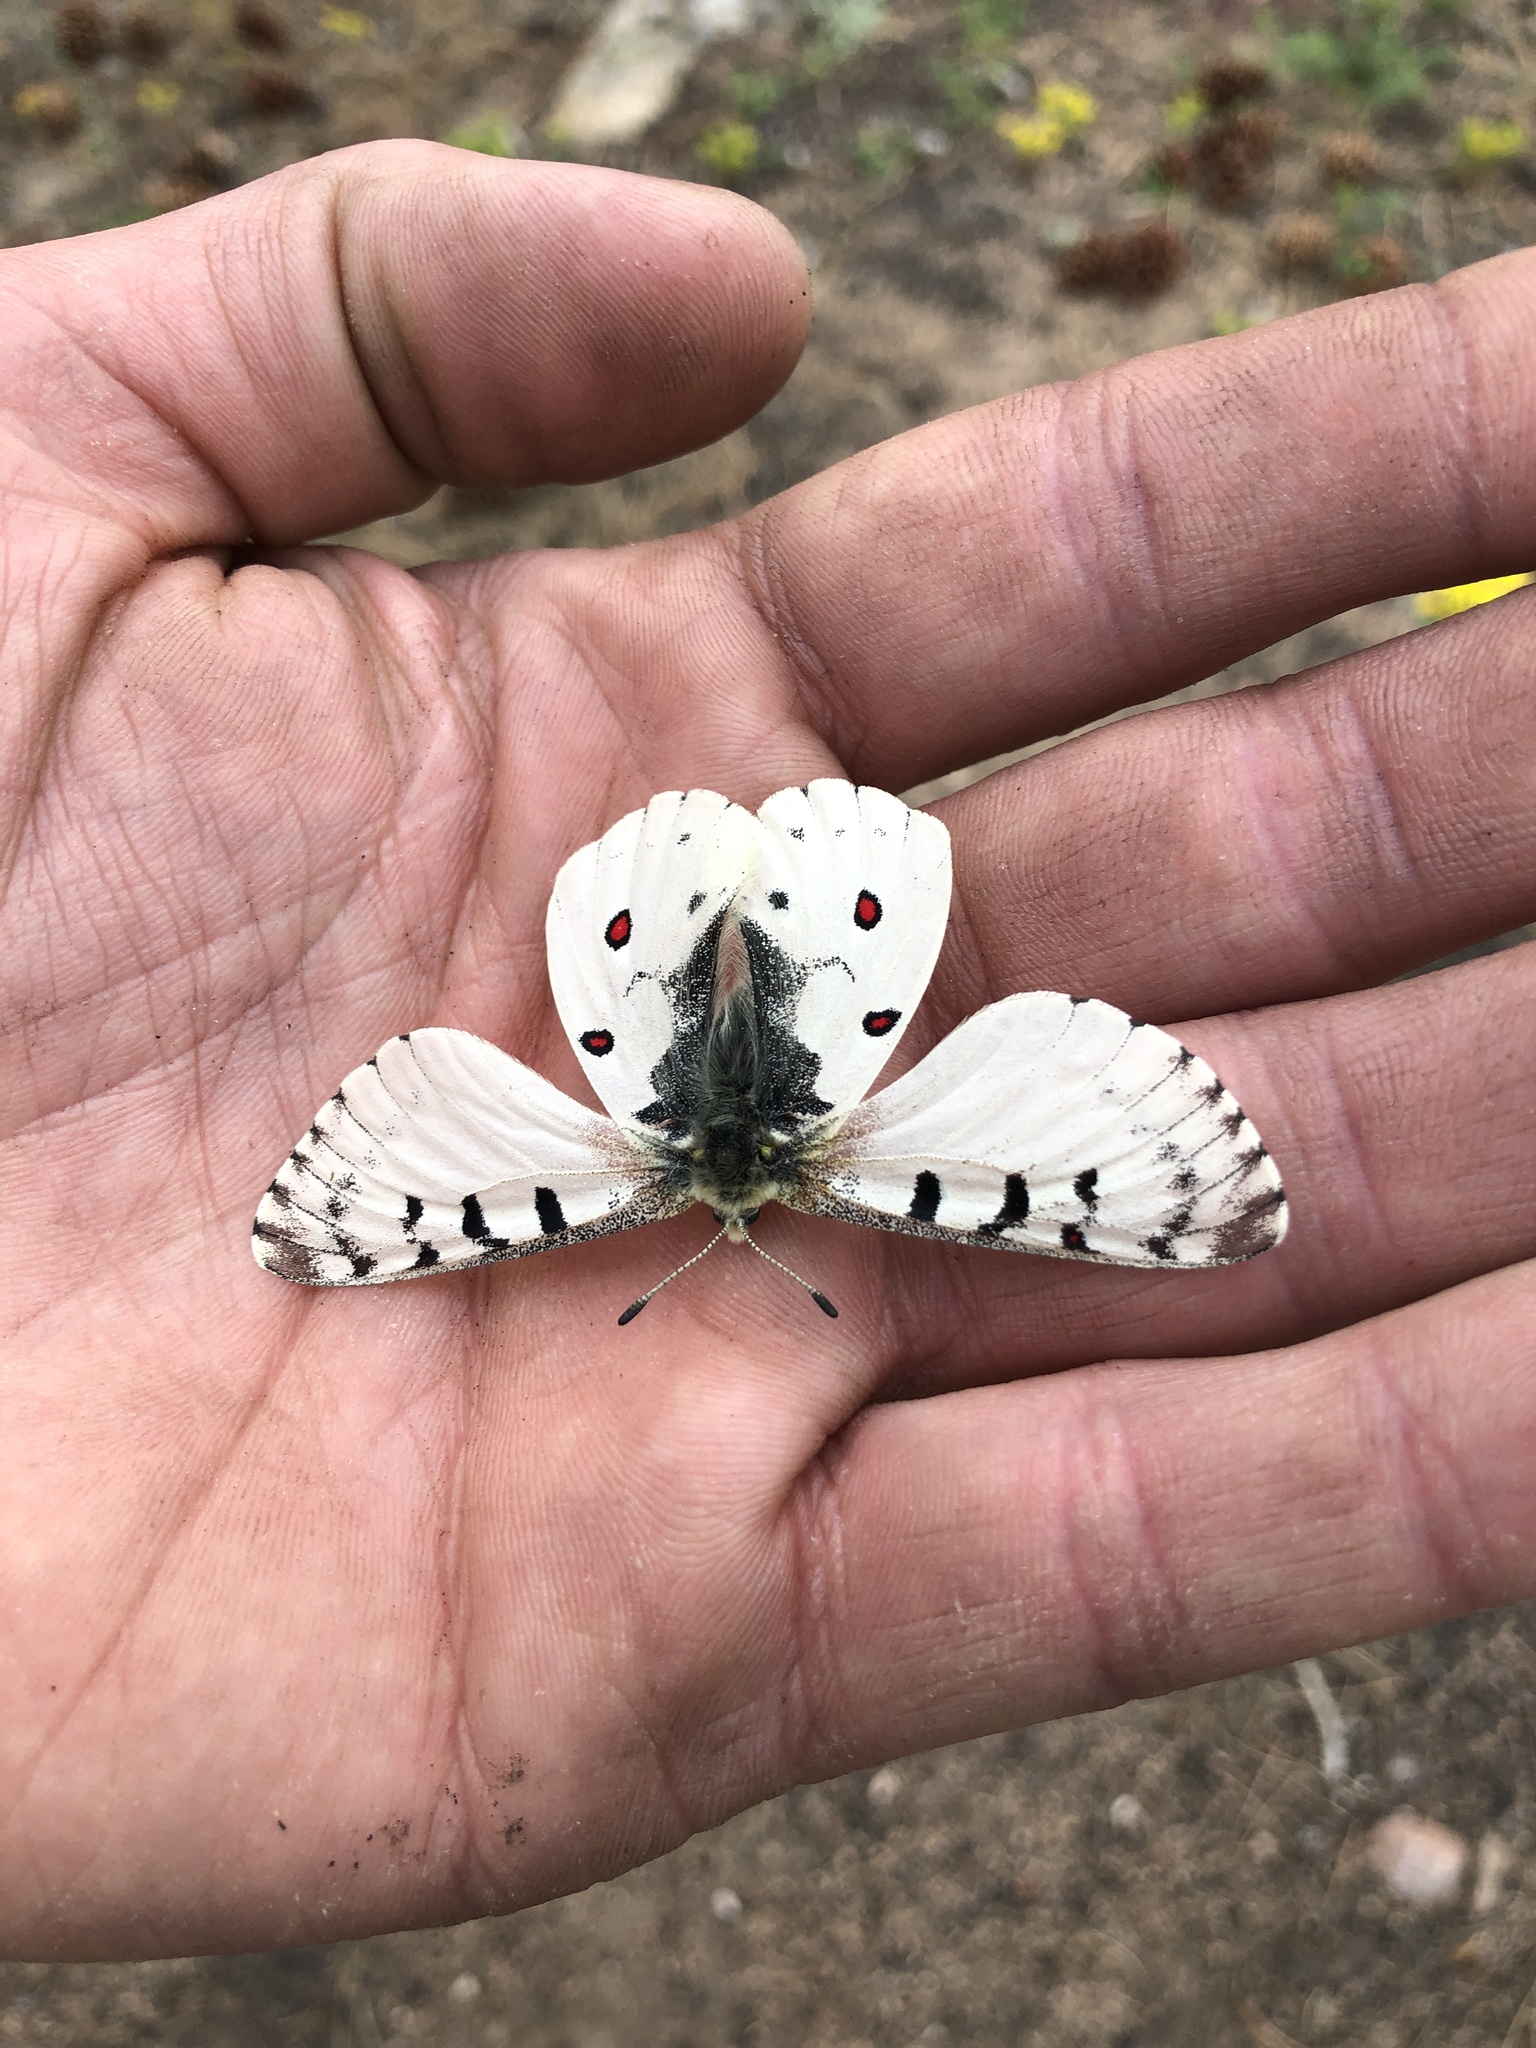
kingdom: Animalia
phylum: Arthropoda
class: Insecta
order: Lepidoptera
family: Papilionidae
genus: Parnassius
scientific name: Parnassius smintheus
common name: Mountain parnassian
